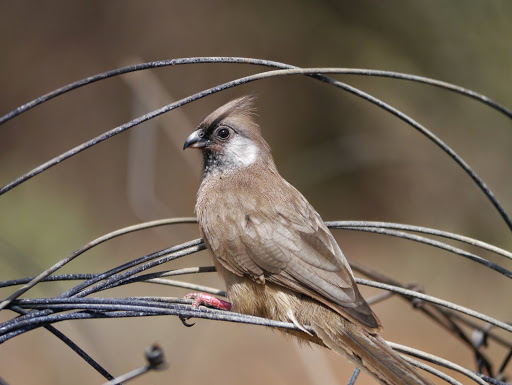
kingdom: Animalia
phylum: Chordata
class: Aves
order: Coliiformes
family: Coliidae
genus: Colius
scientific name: Colius striatus
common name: Speckled mousebird
